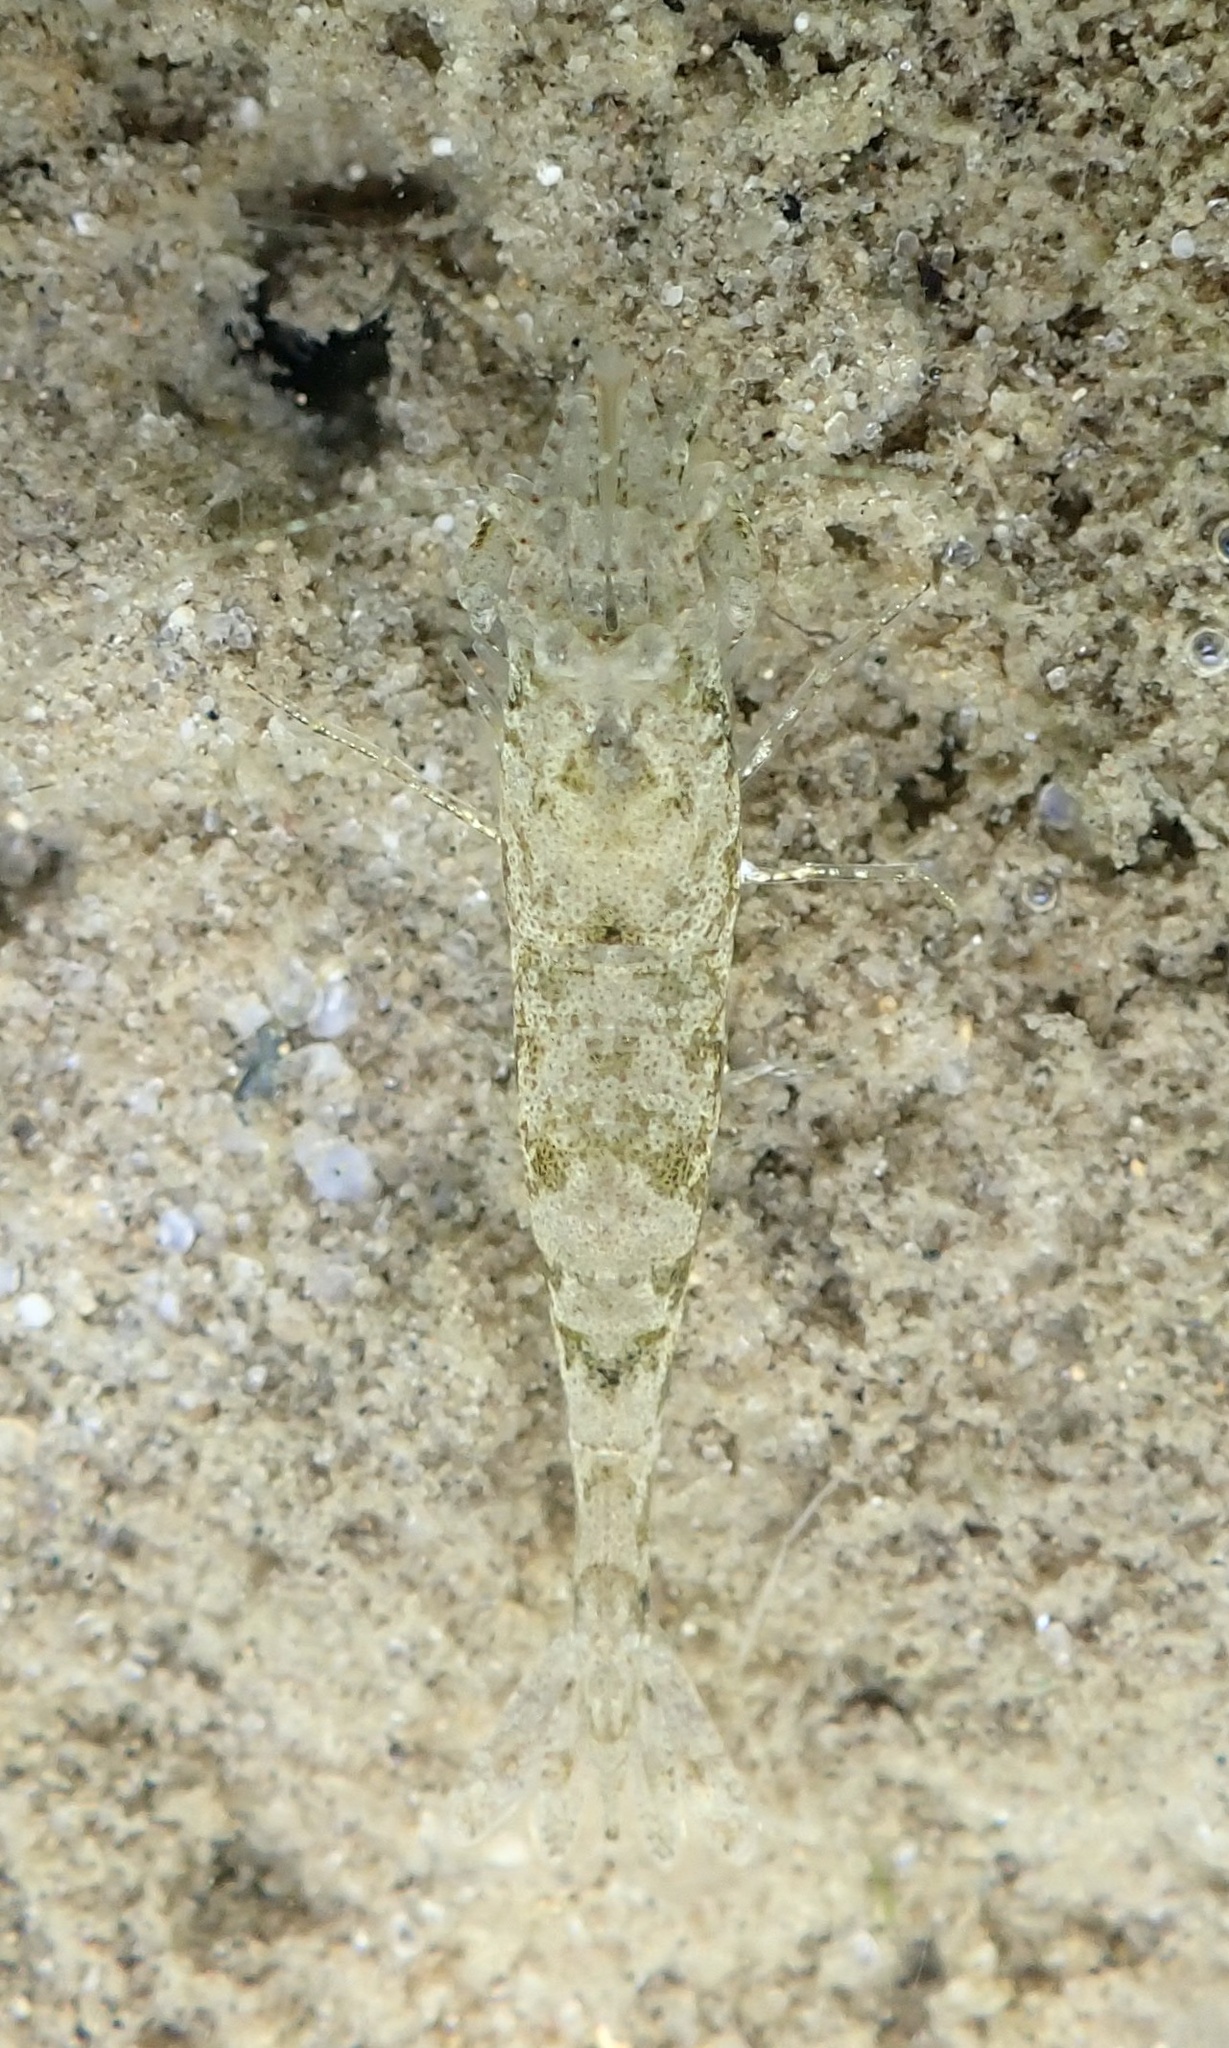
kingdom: Animalia
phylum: Arthropoda
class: Malacostraca
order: Decapoda
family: Crangonidae
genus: Crangon
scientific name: Crangon septemspinosa
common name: Bail shrimp
